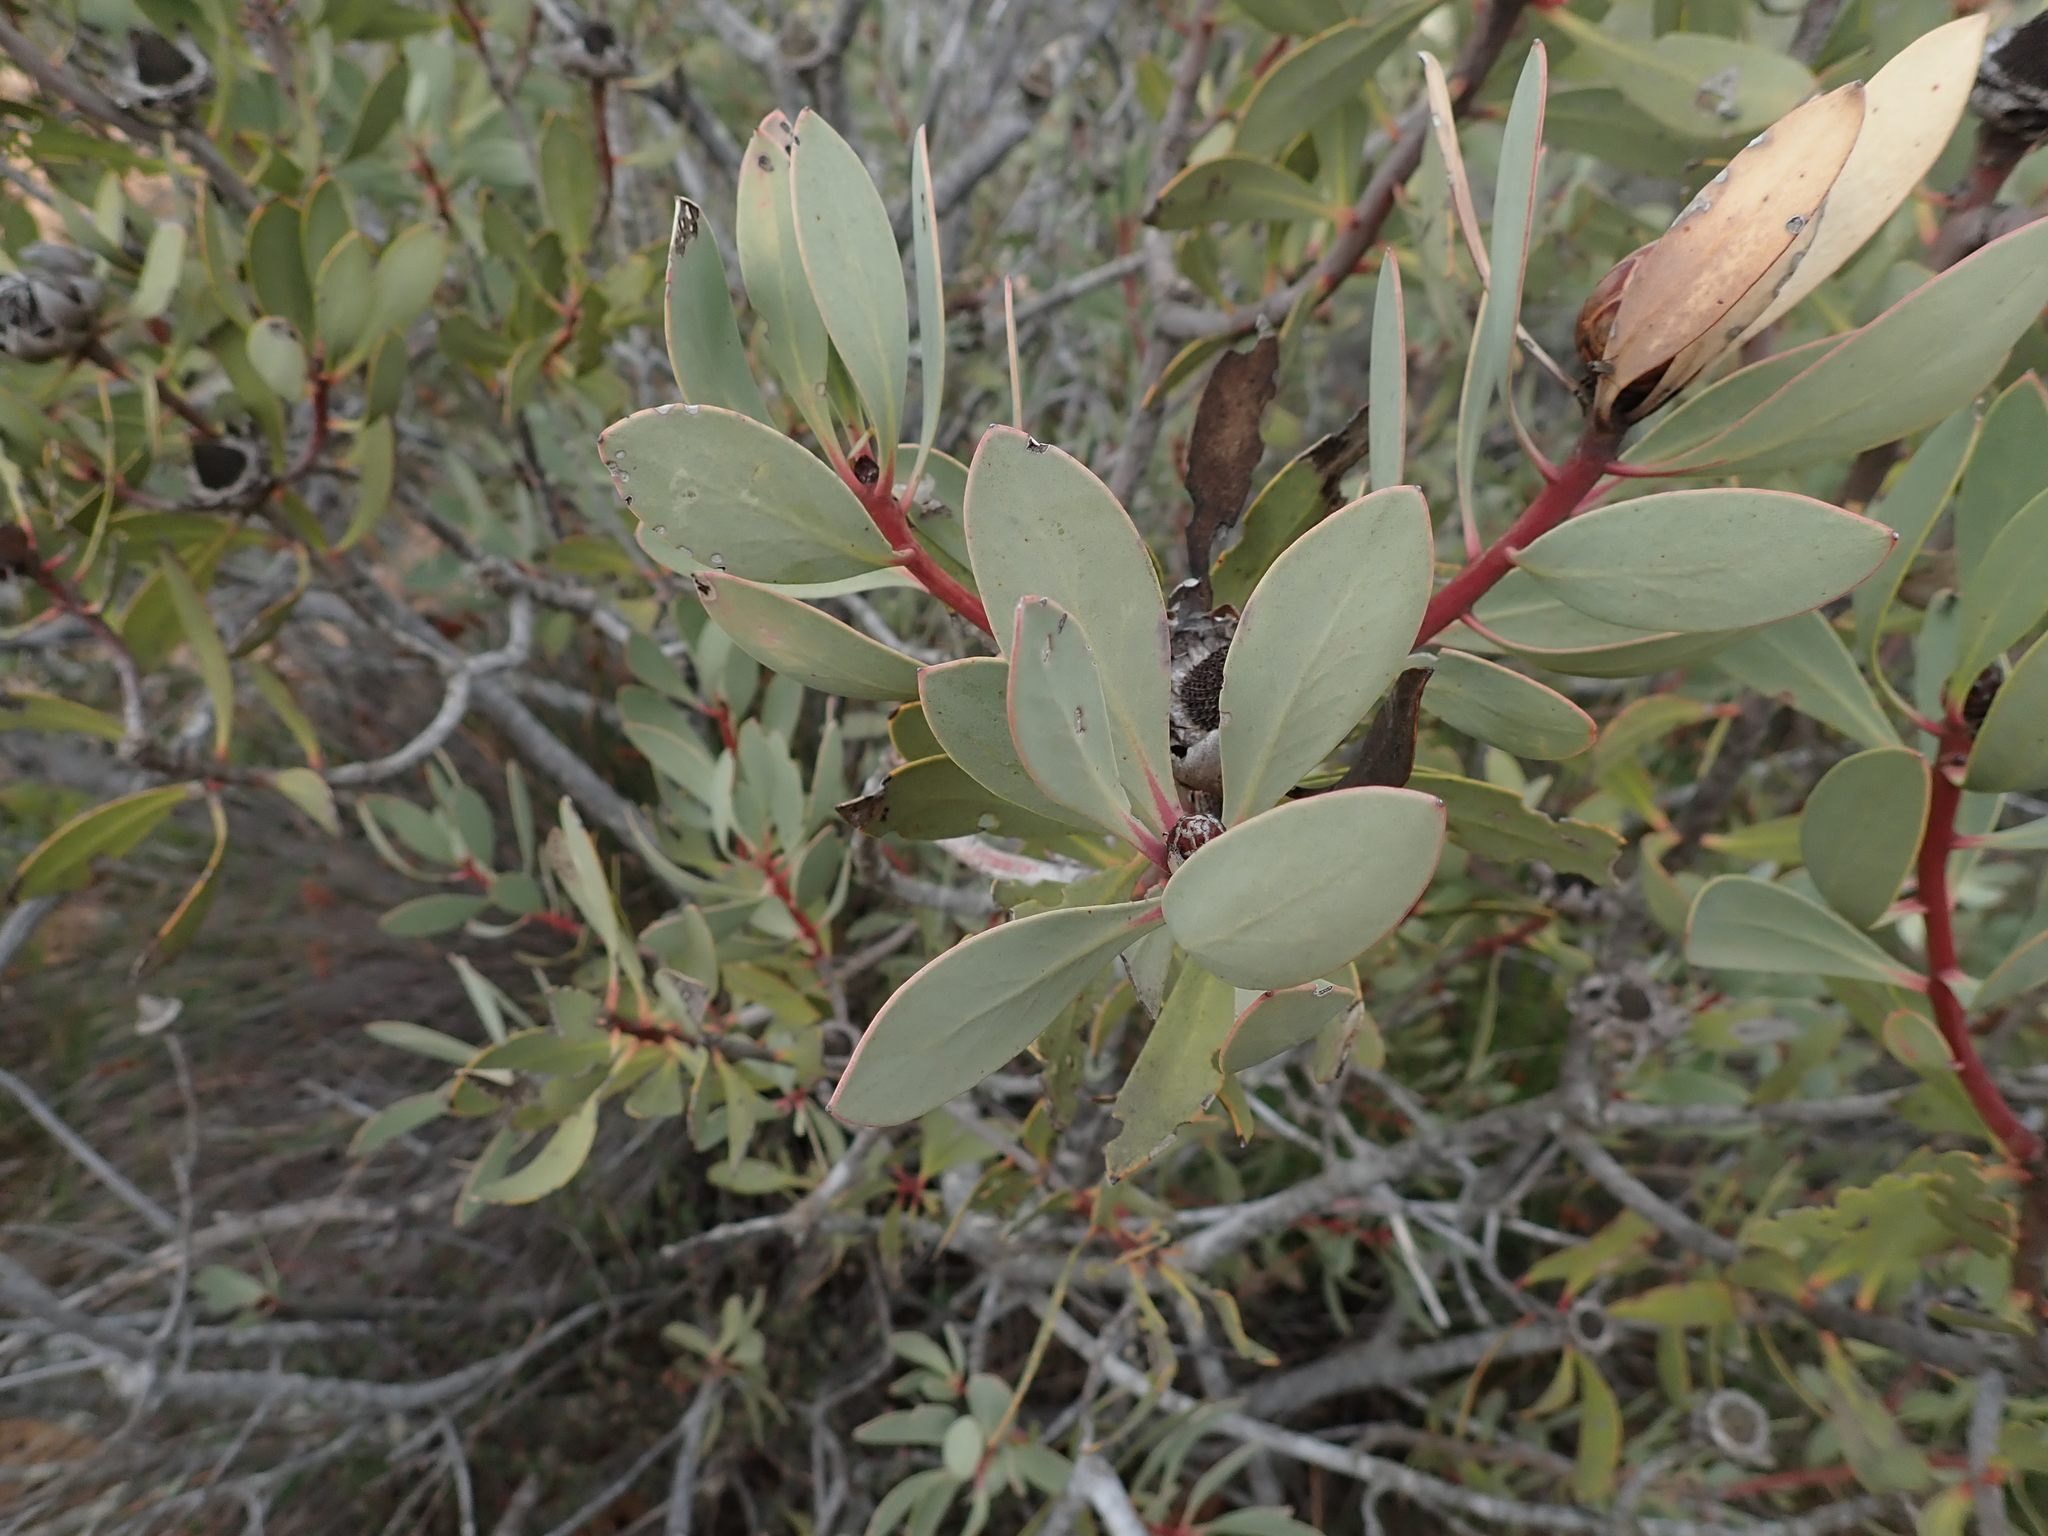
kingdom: Plantae
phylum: Tracheophyta
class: Magnoliopsida
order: Proteales
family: Proteaceae
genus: Protea
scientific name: Protea glabra
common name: Chestnut sugarbush
